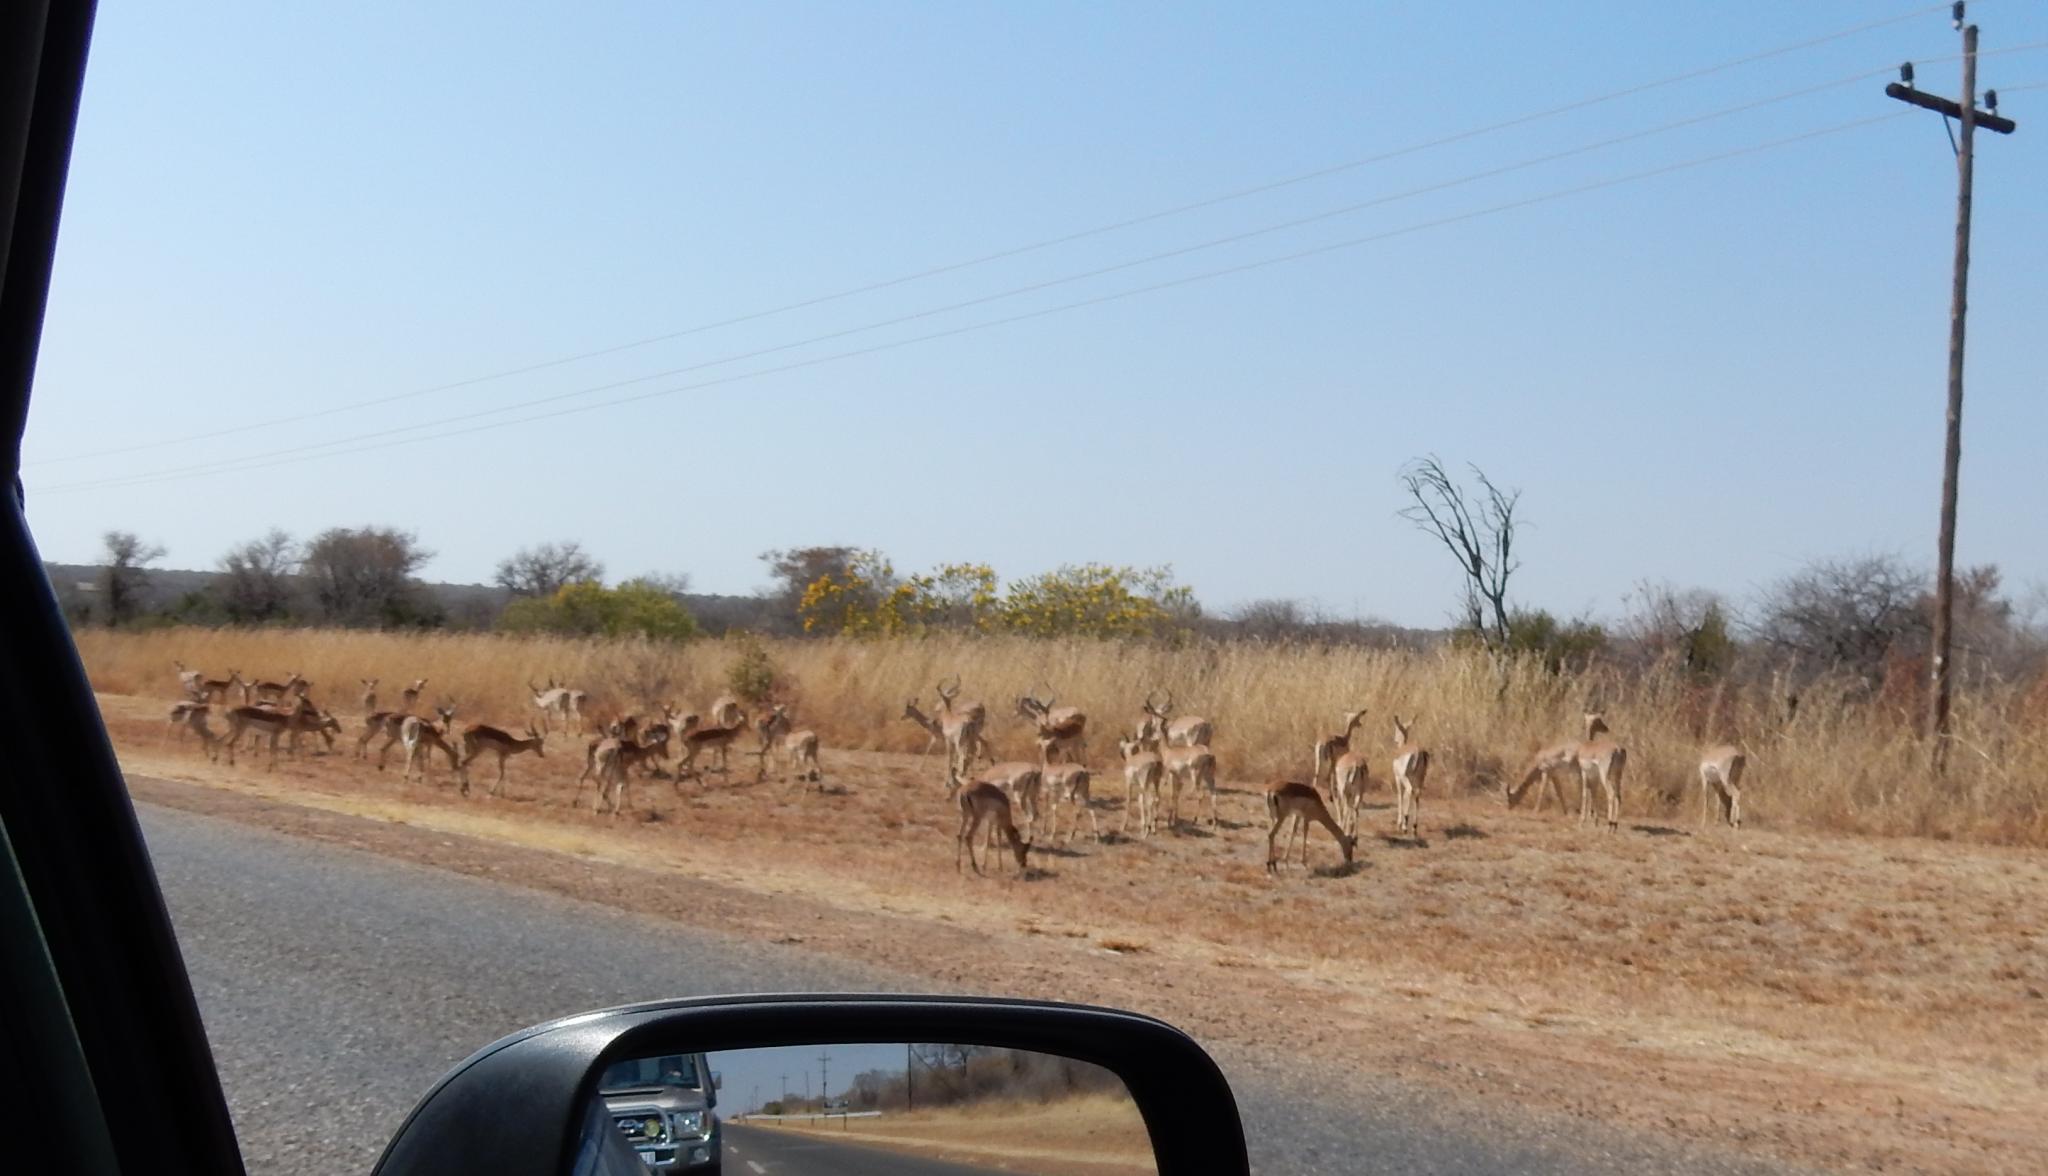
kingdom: Animalia
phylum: Chordata
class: Mammalia
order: Artiodactyla
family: Bovidae
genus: Aepyceros
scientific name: Aepyceros melampus
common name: Impala
